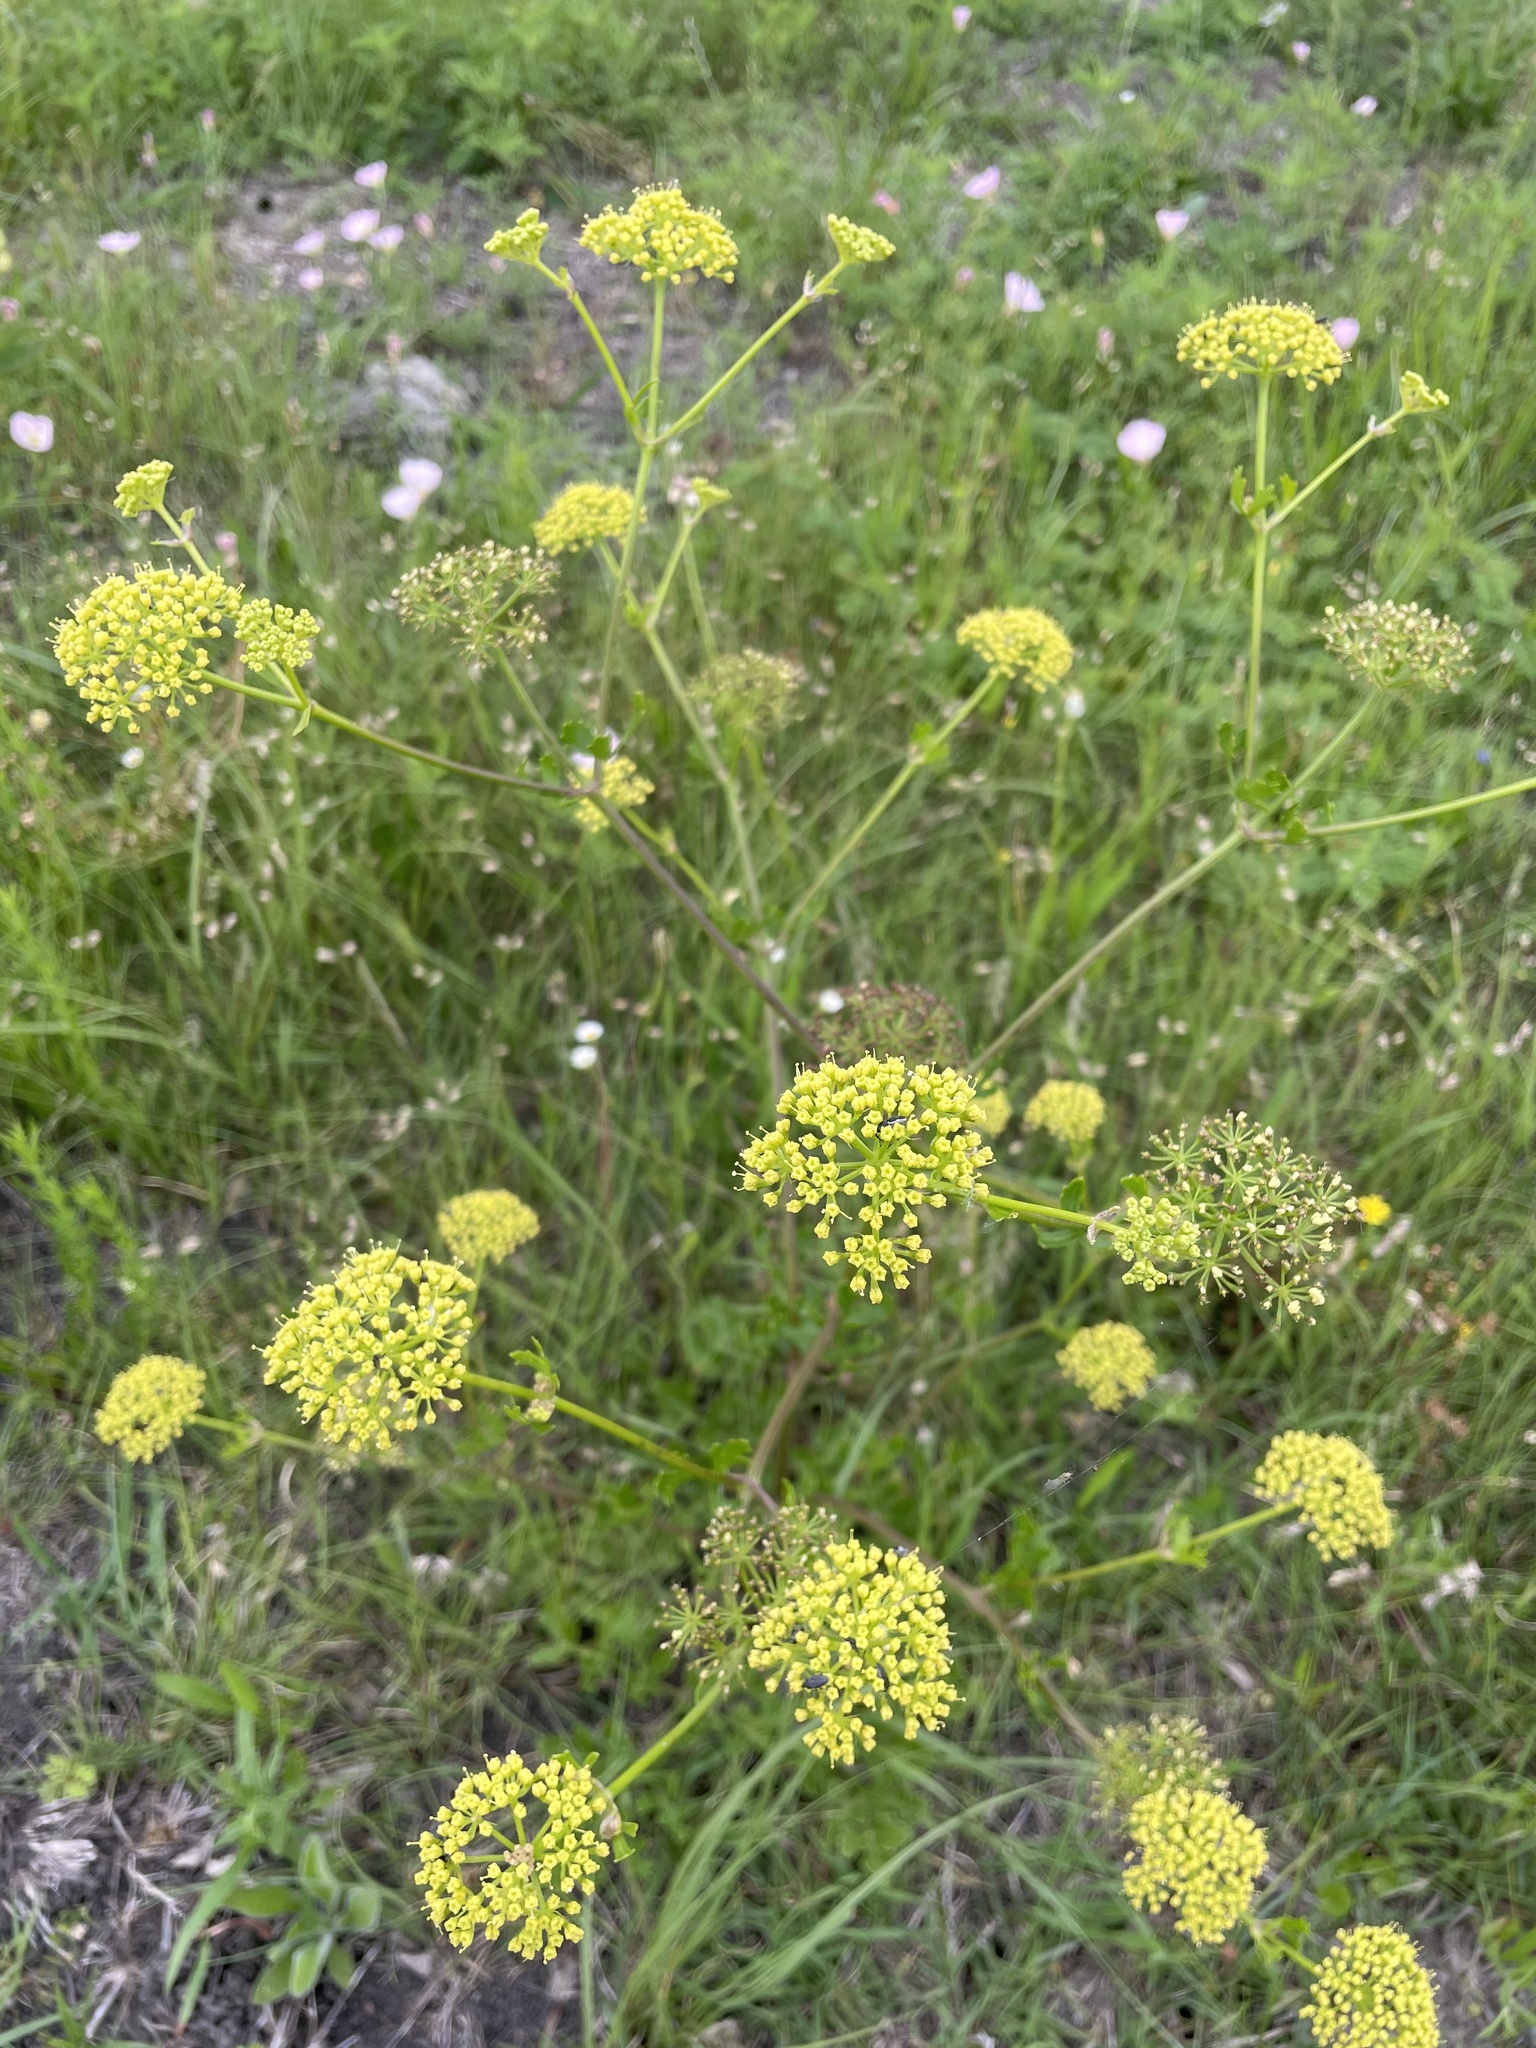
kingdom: Plantae
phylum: Tracheophyta
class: Magnoliopsida
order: Apiales
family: Apiaceae
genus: Polytaenia
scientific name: Polytaenia texana
